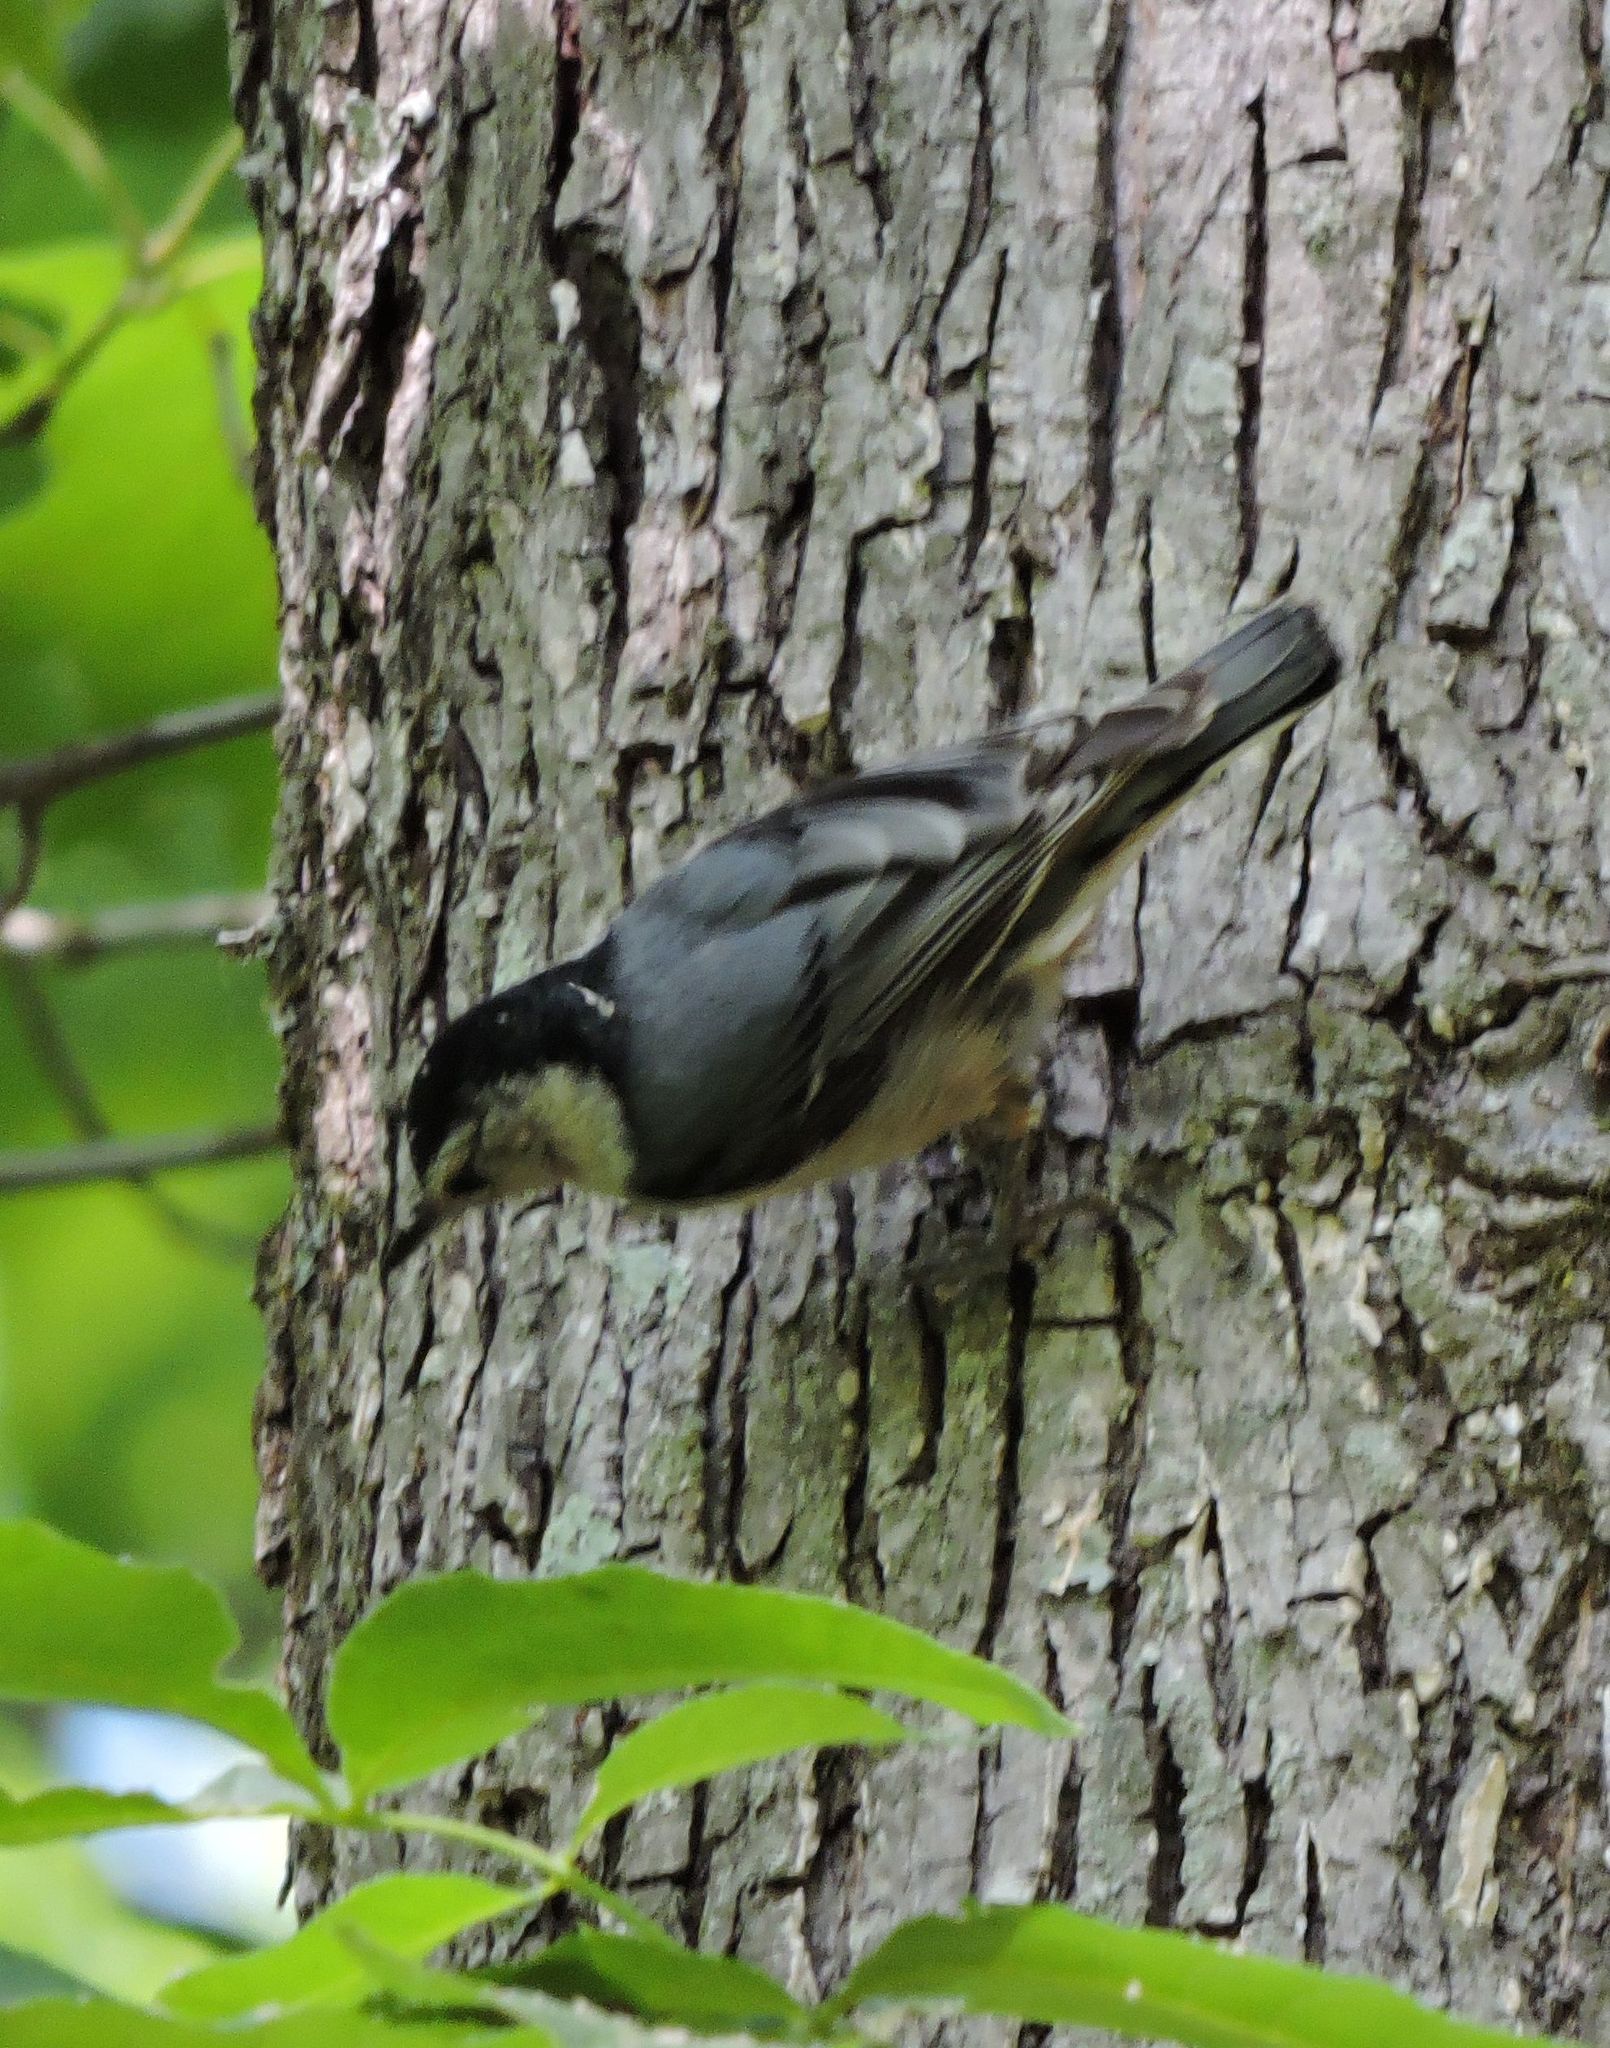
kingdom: Animalia
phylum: Chordata
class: Aves
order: Passeriformes
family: Sittidae
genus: Sitta
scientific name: Sitta carolinensis
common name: White-breasted nuthatch
